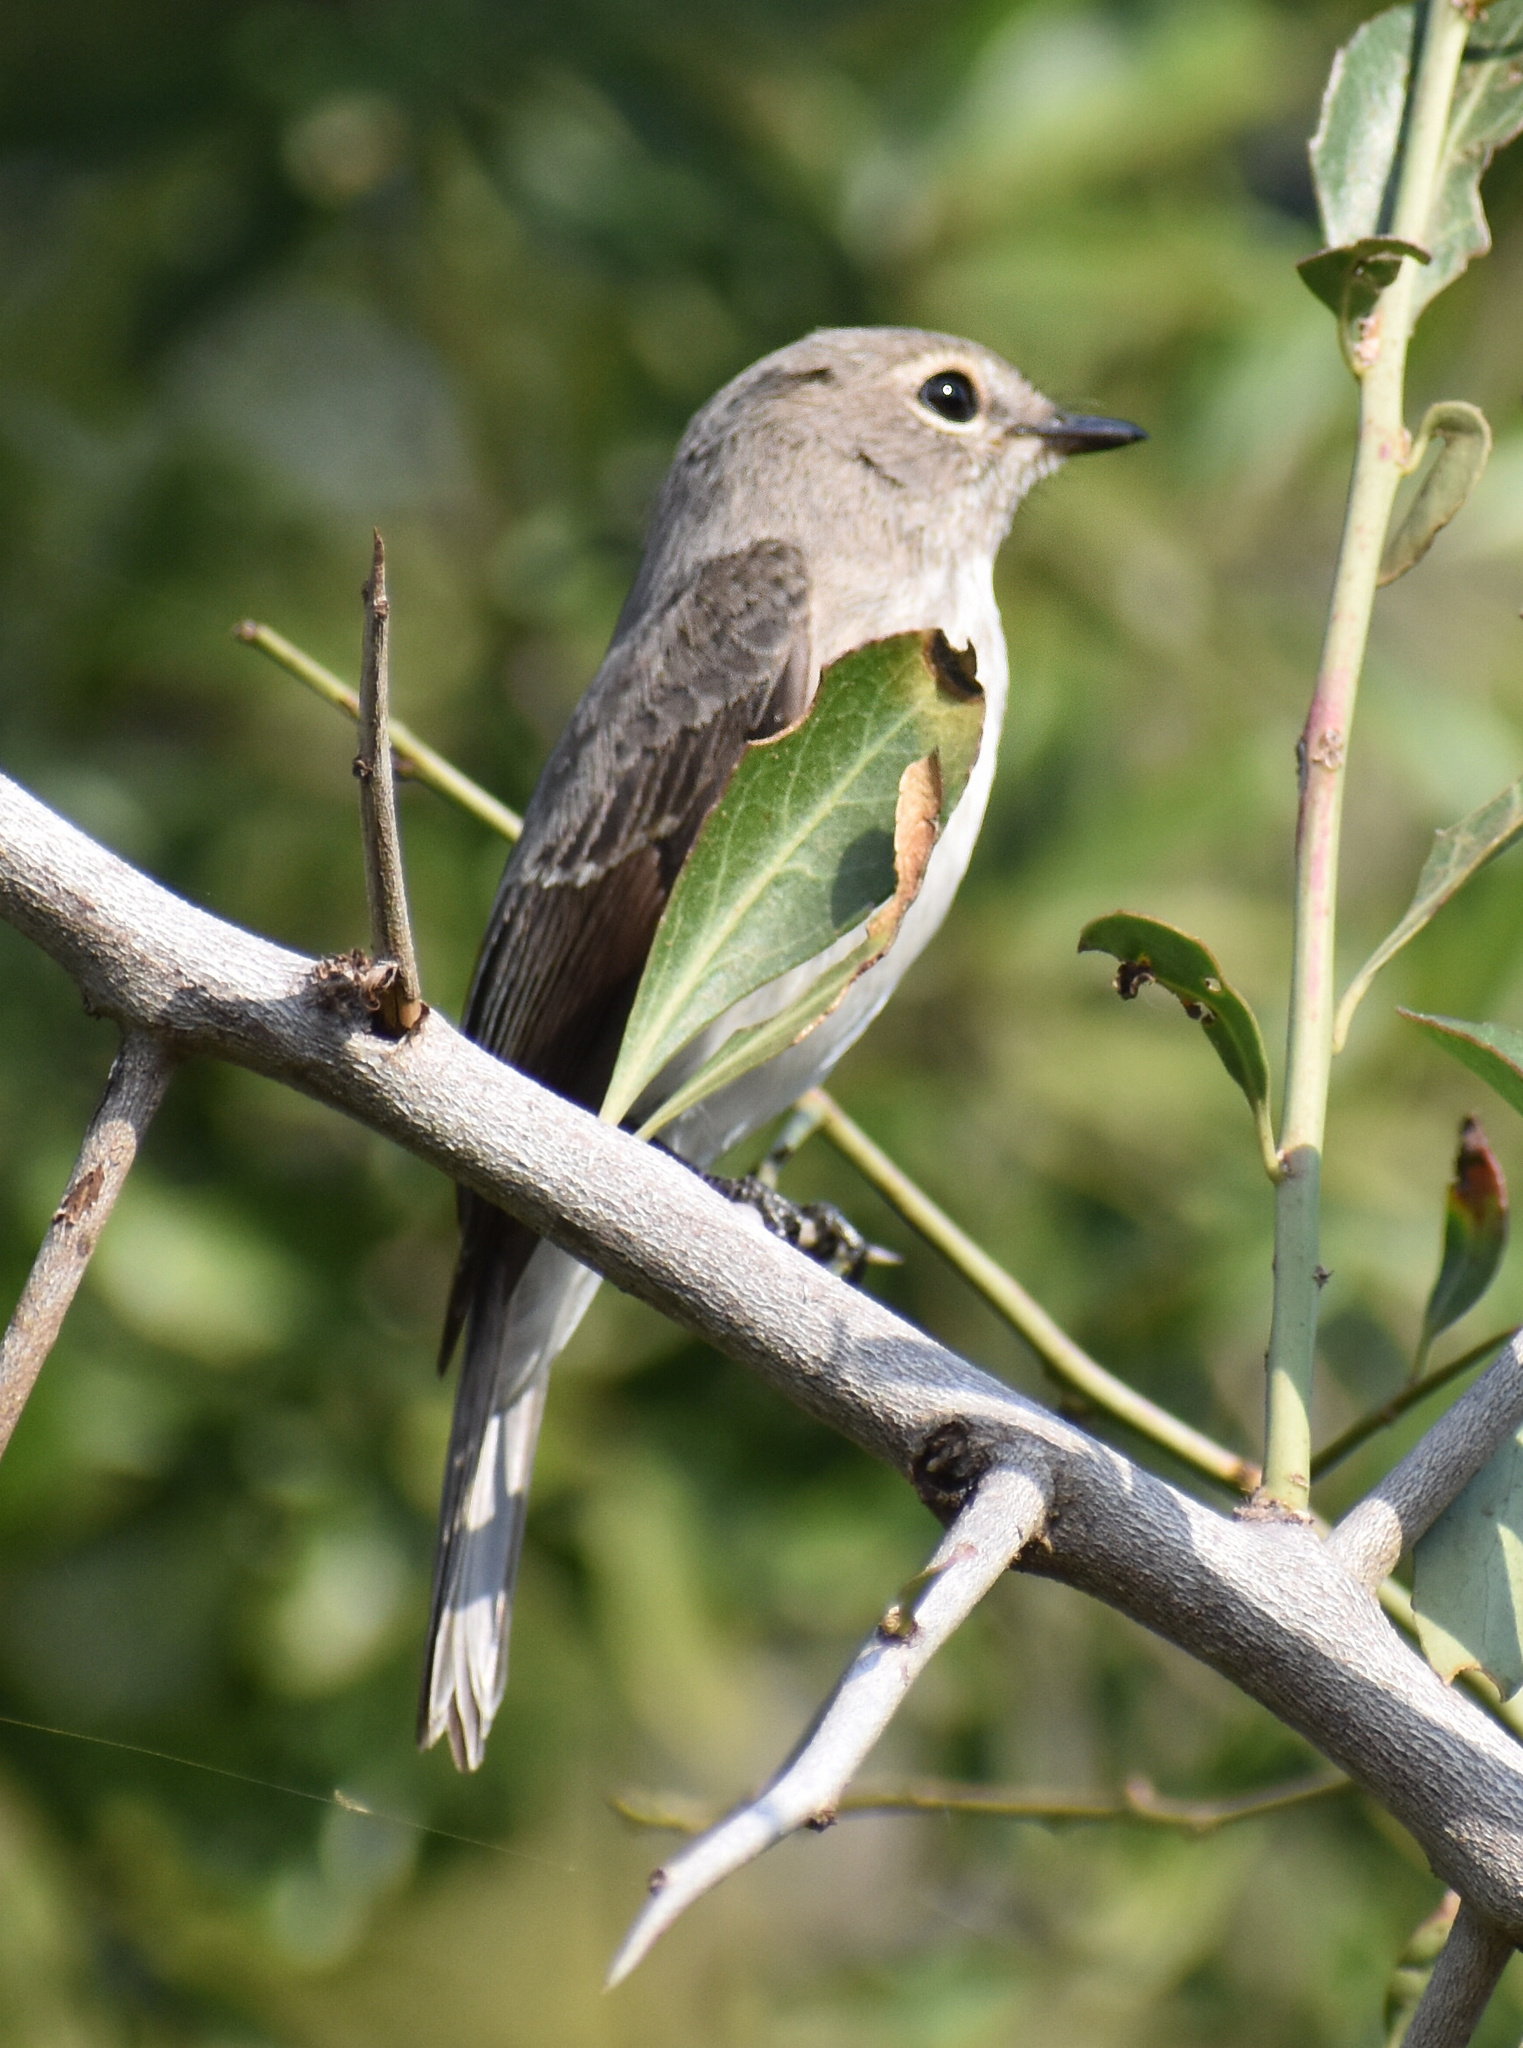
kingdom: Animalia
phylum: Chordata
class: Aves
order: Passeriformes
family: Muscicapidae
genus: Muscicapa
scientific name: Muscicapa adusta
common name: African dusky flycatcher
